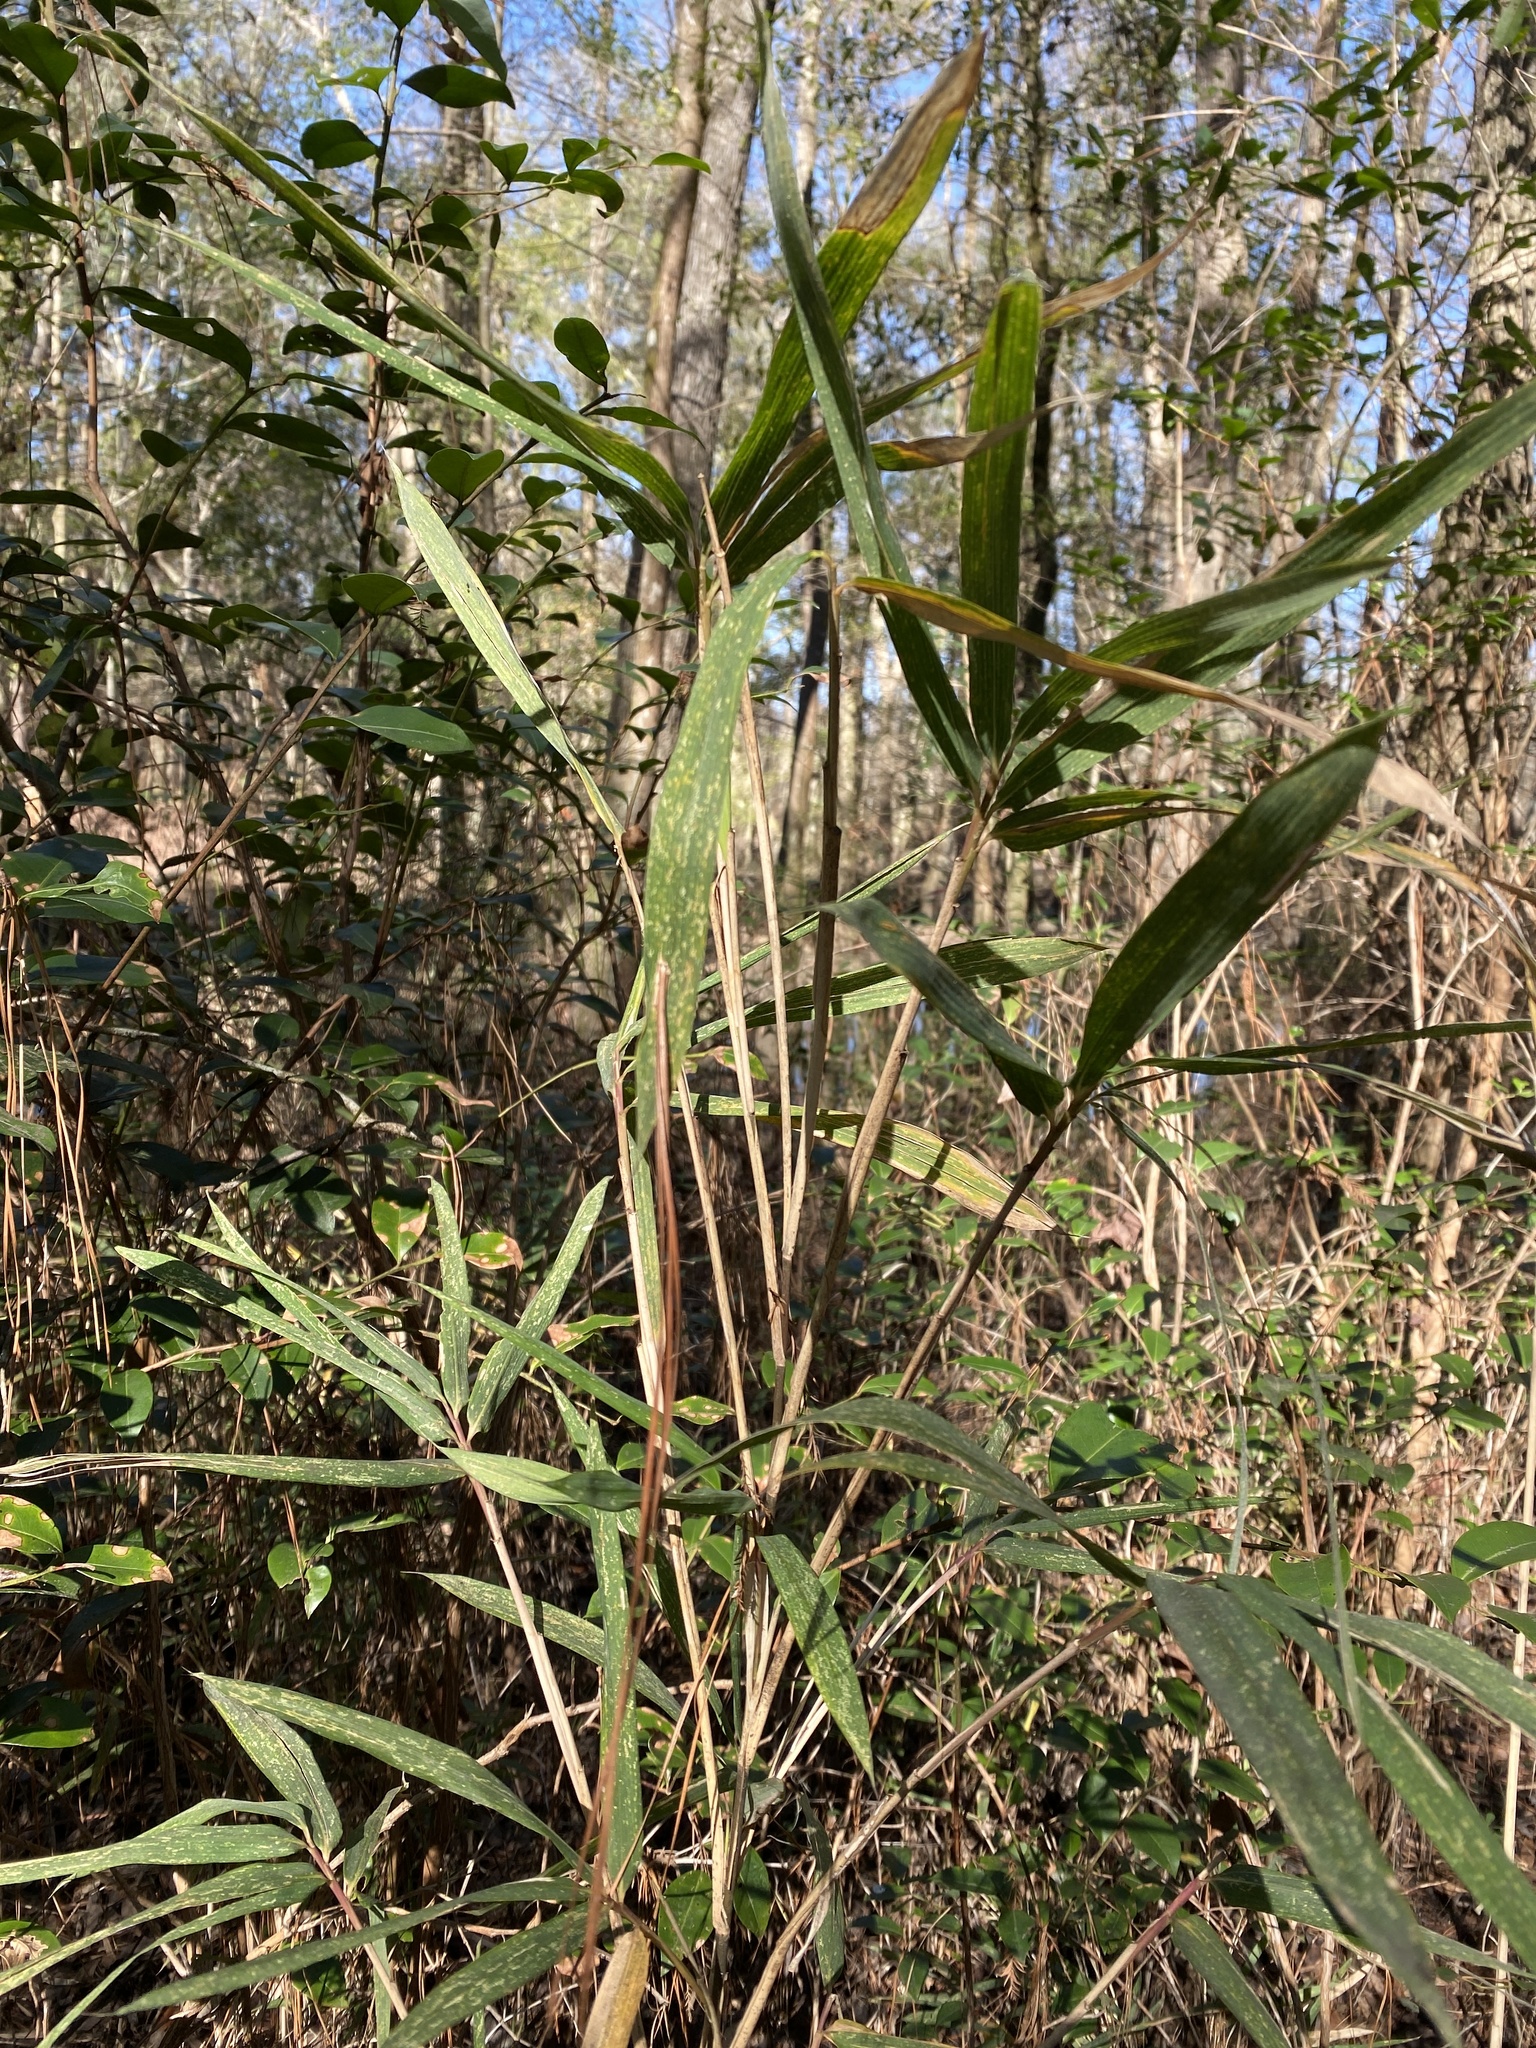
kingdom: Plantae
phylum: Tracheophyta
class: Liliopsida
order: Poales
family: Poaceae
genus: Arundinaria
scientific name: Arundinaria gigantea
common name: Giant cane
